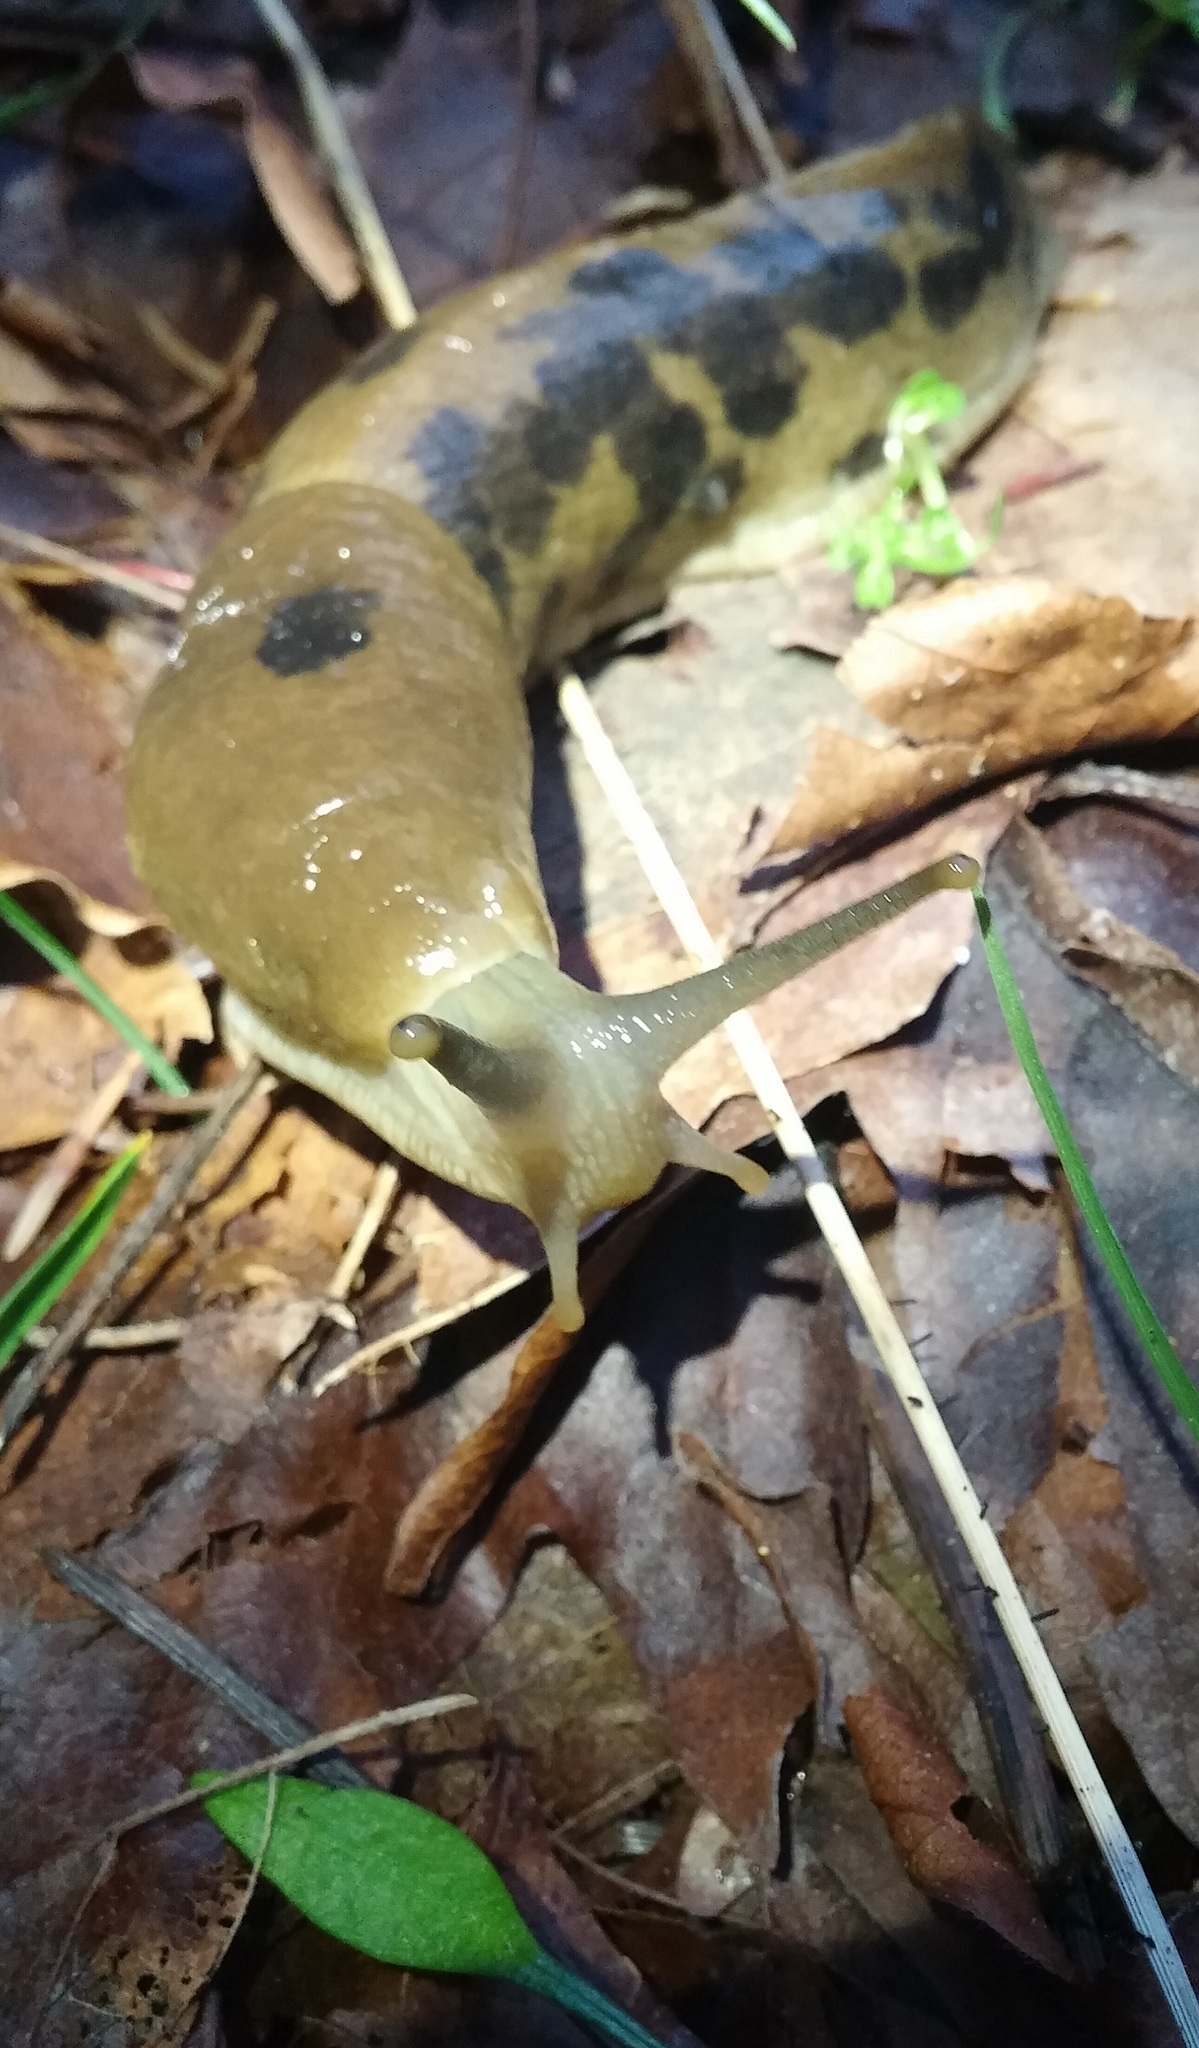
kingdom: Animalia
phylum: Mollusca
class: Gastropoda
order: Stylommatophora
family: Ariolimacidae
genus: Ariolimax
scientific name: Ariolimax columbianus
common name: Pacific banana slug
